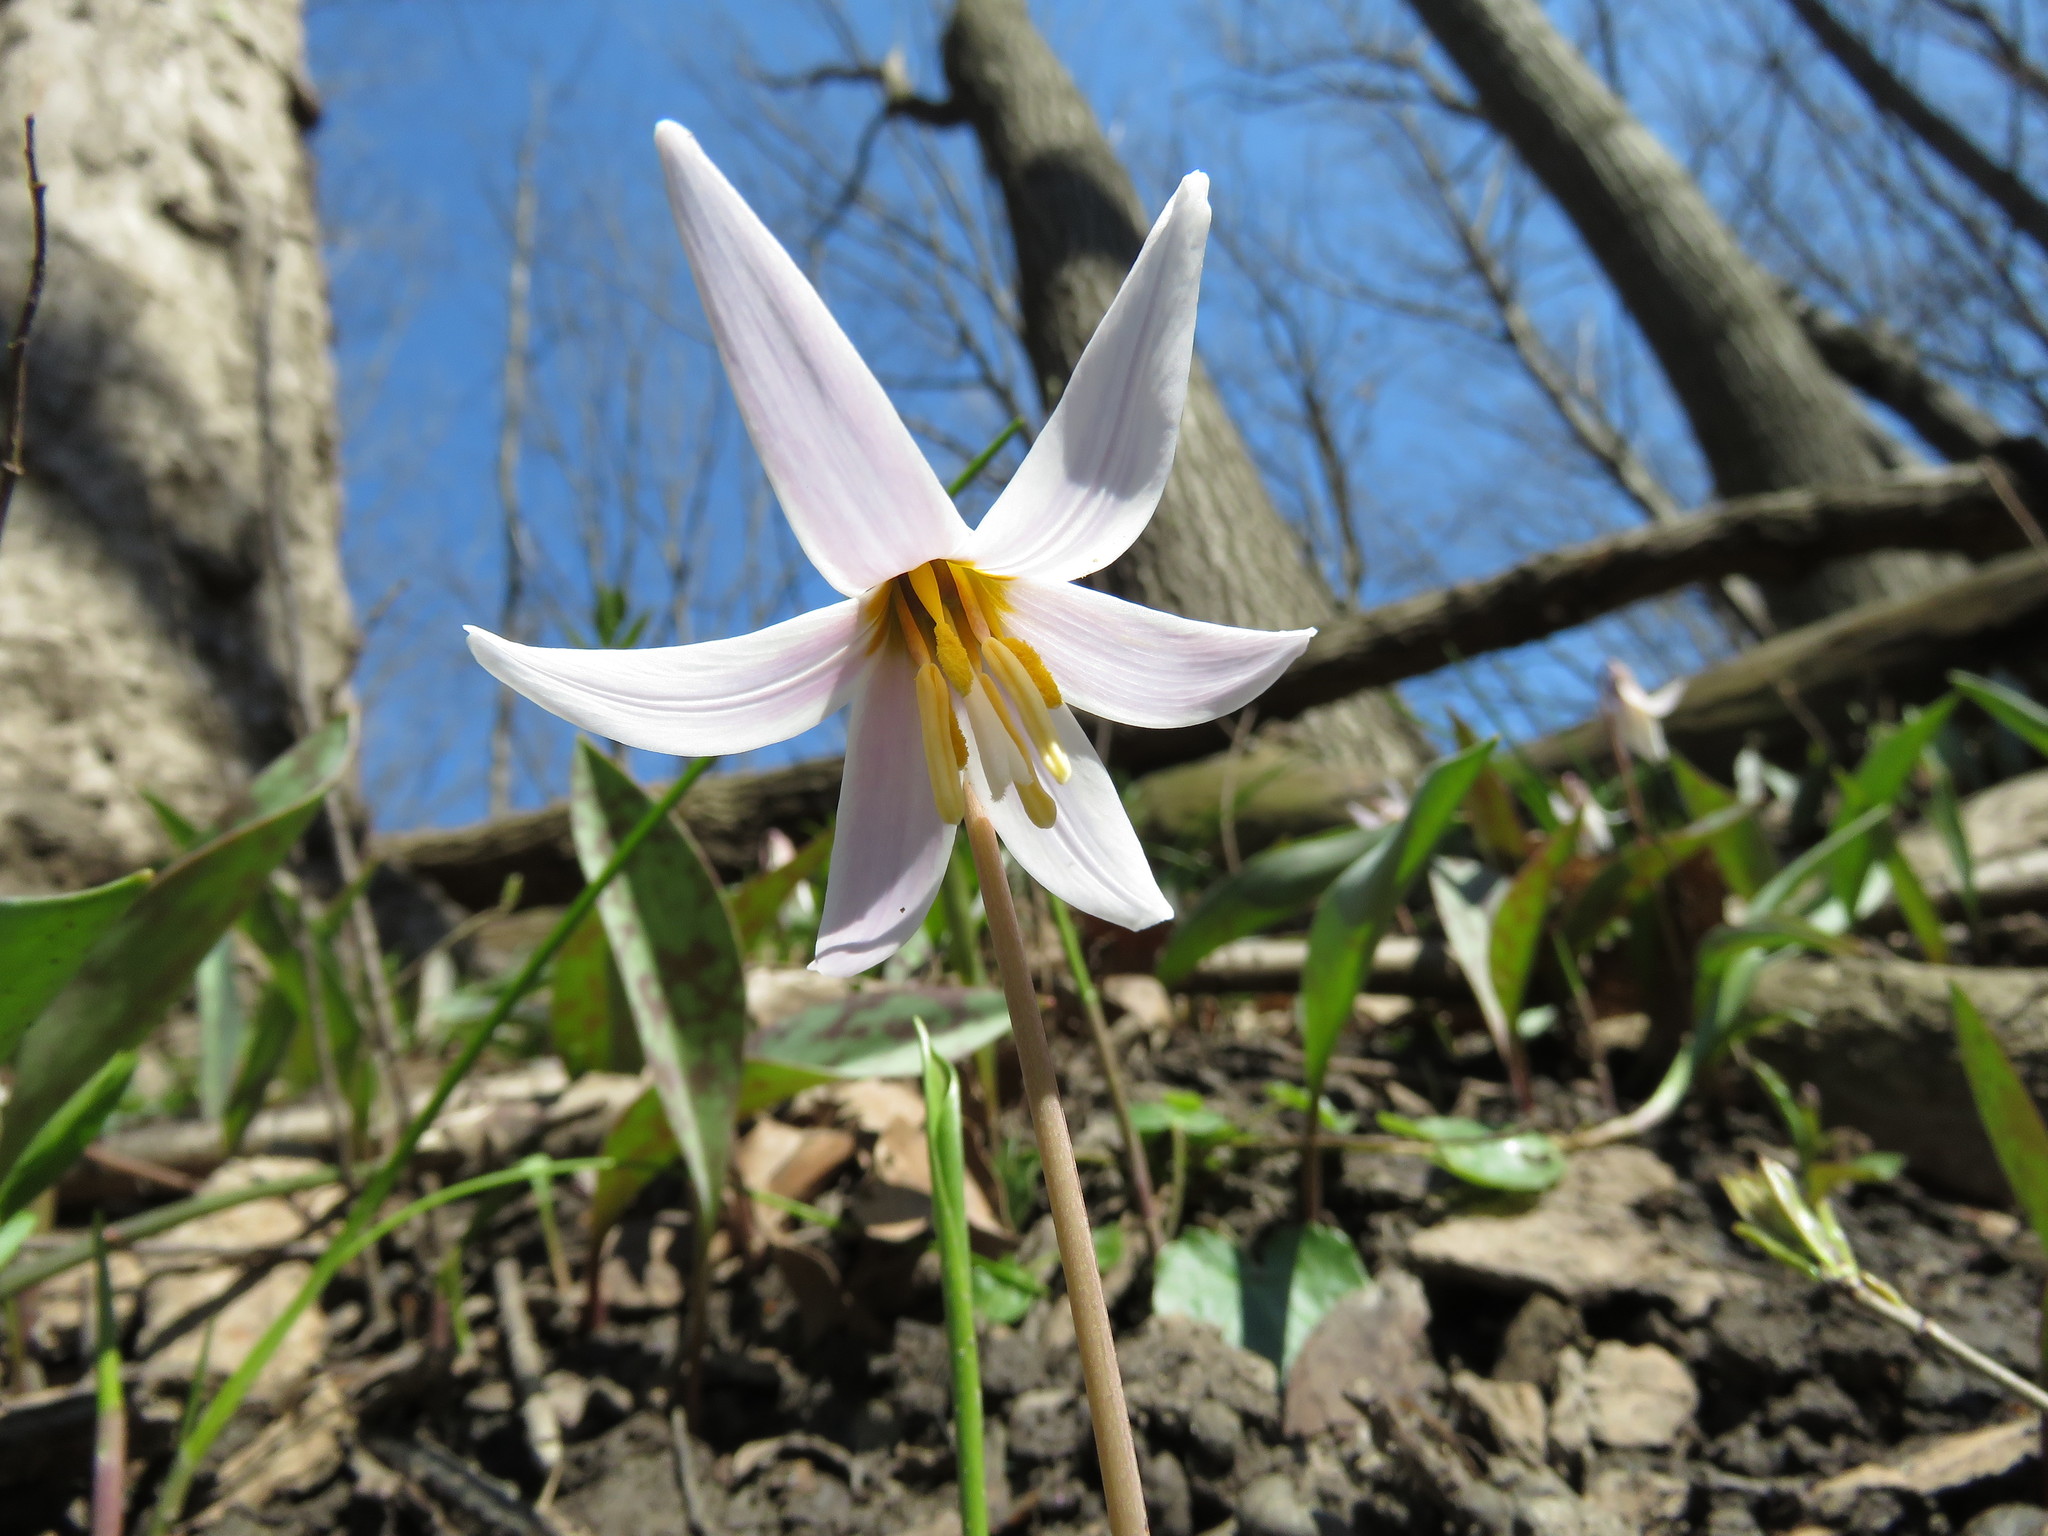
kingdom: Plantae
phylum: Tracheophyta
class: Liliopsida
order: Liliales
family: Liliaceae
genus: Erythronium
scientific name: Erythronium albidum
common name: White trout-lily
